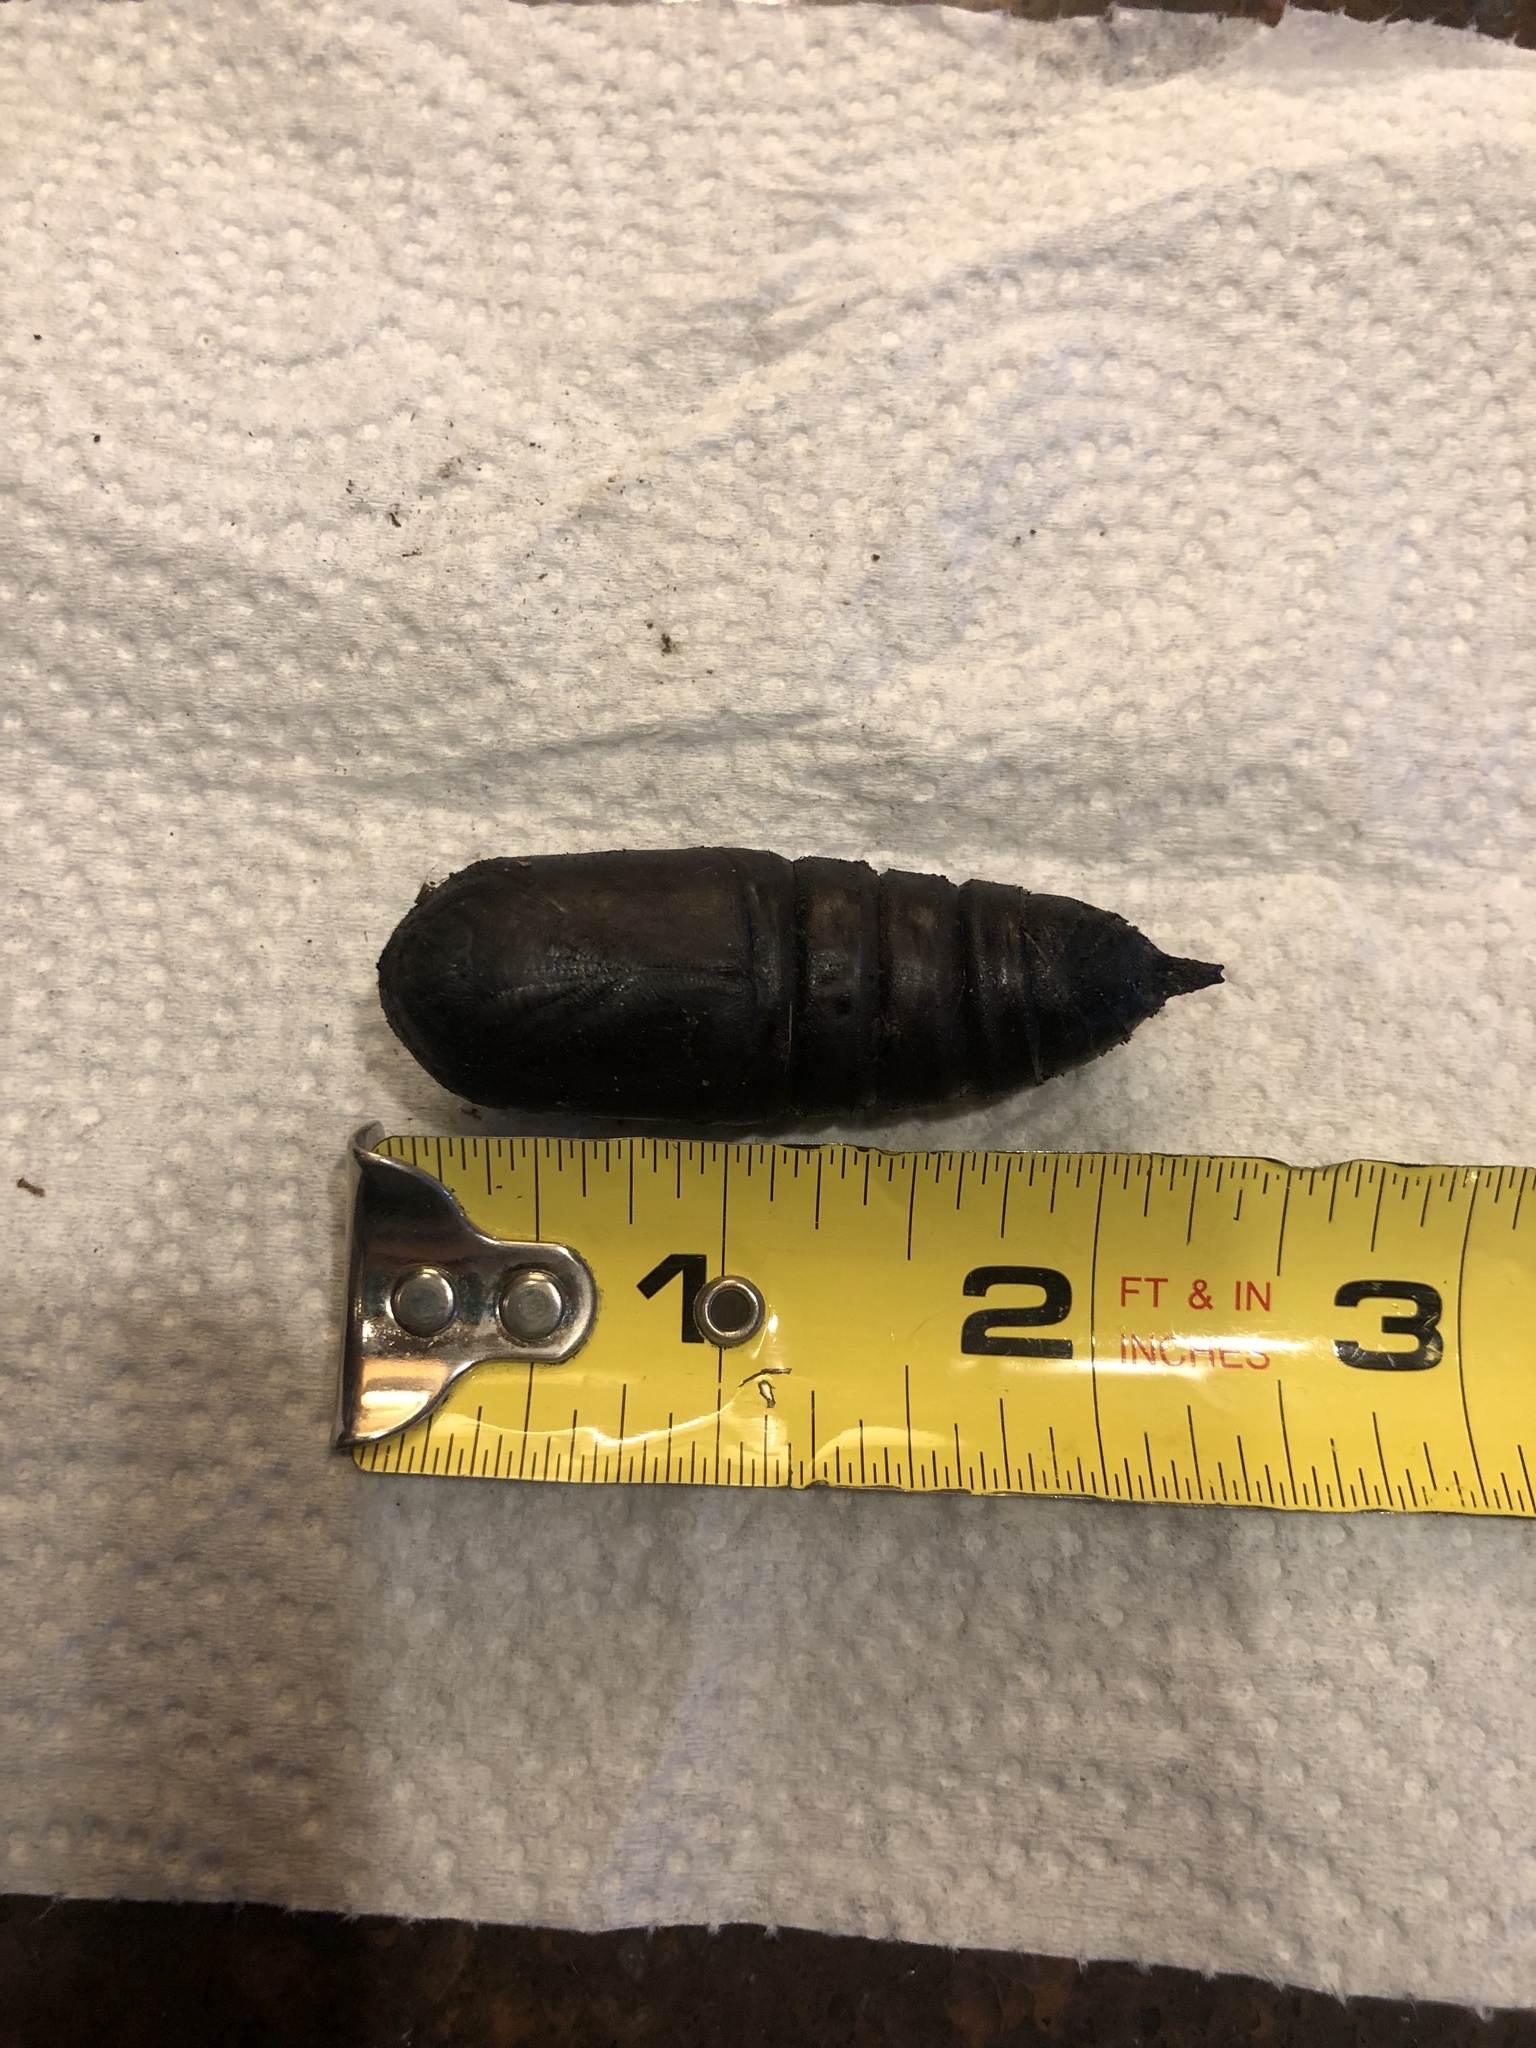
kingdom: Animalia
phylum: Arthropoda
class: Insecta
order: Lepidoptera
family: Saturniidae
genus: Eacles
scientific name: Eacles imperialis
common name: Imperial moth
